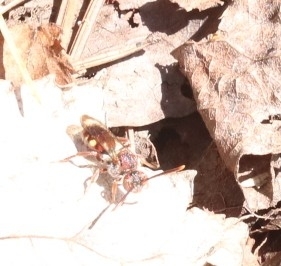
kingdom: Animalia
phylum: Arthropoda
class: Insecta
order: Hymenoptera
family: Apidae
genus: Nomada
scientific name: Nomada
